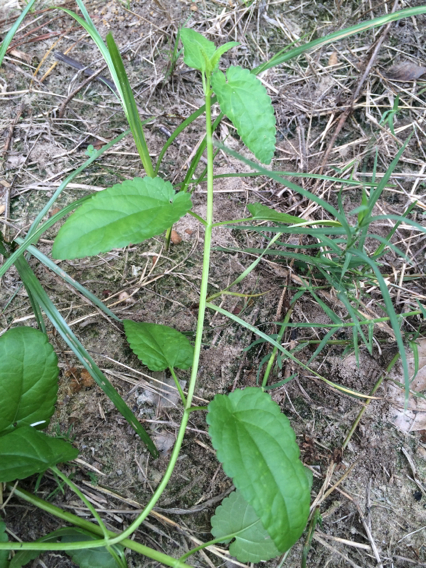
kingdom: Plantae
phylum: Tracheophyta
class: Magnoliopsida
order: Lamiales
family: Lamiaceae
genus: Stachys
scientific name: Stachys floridana
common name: Florida betony
